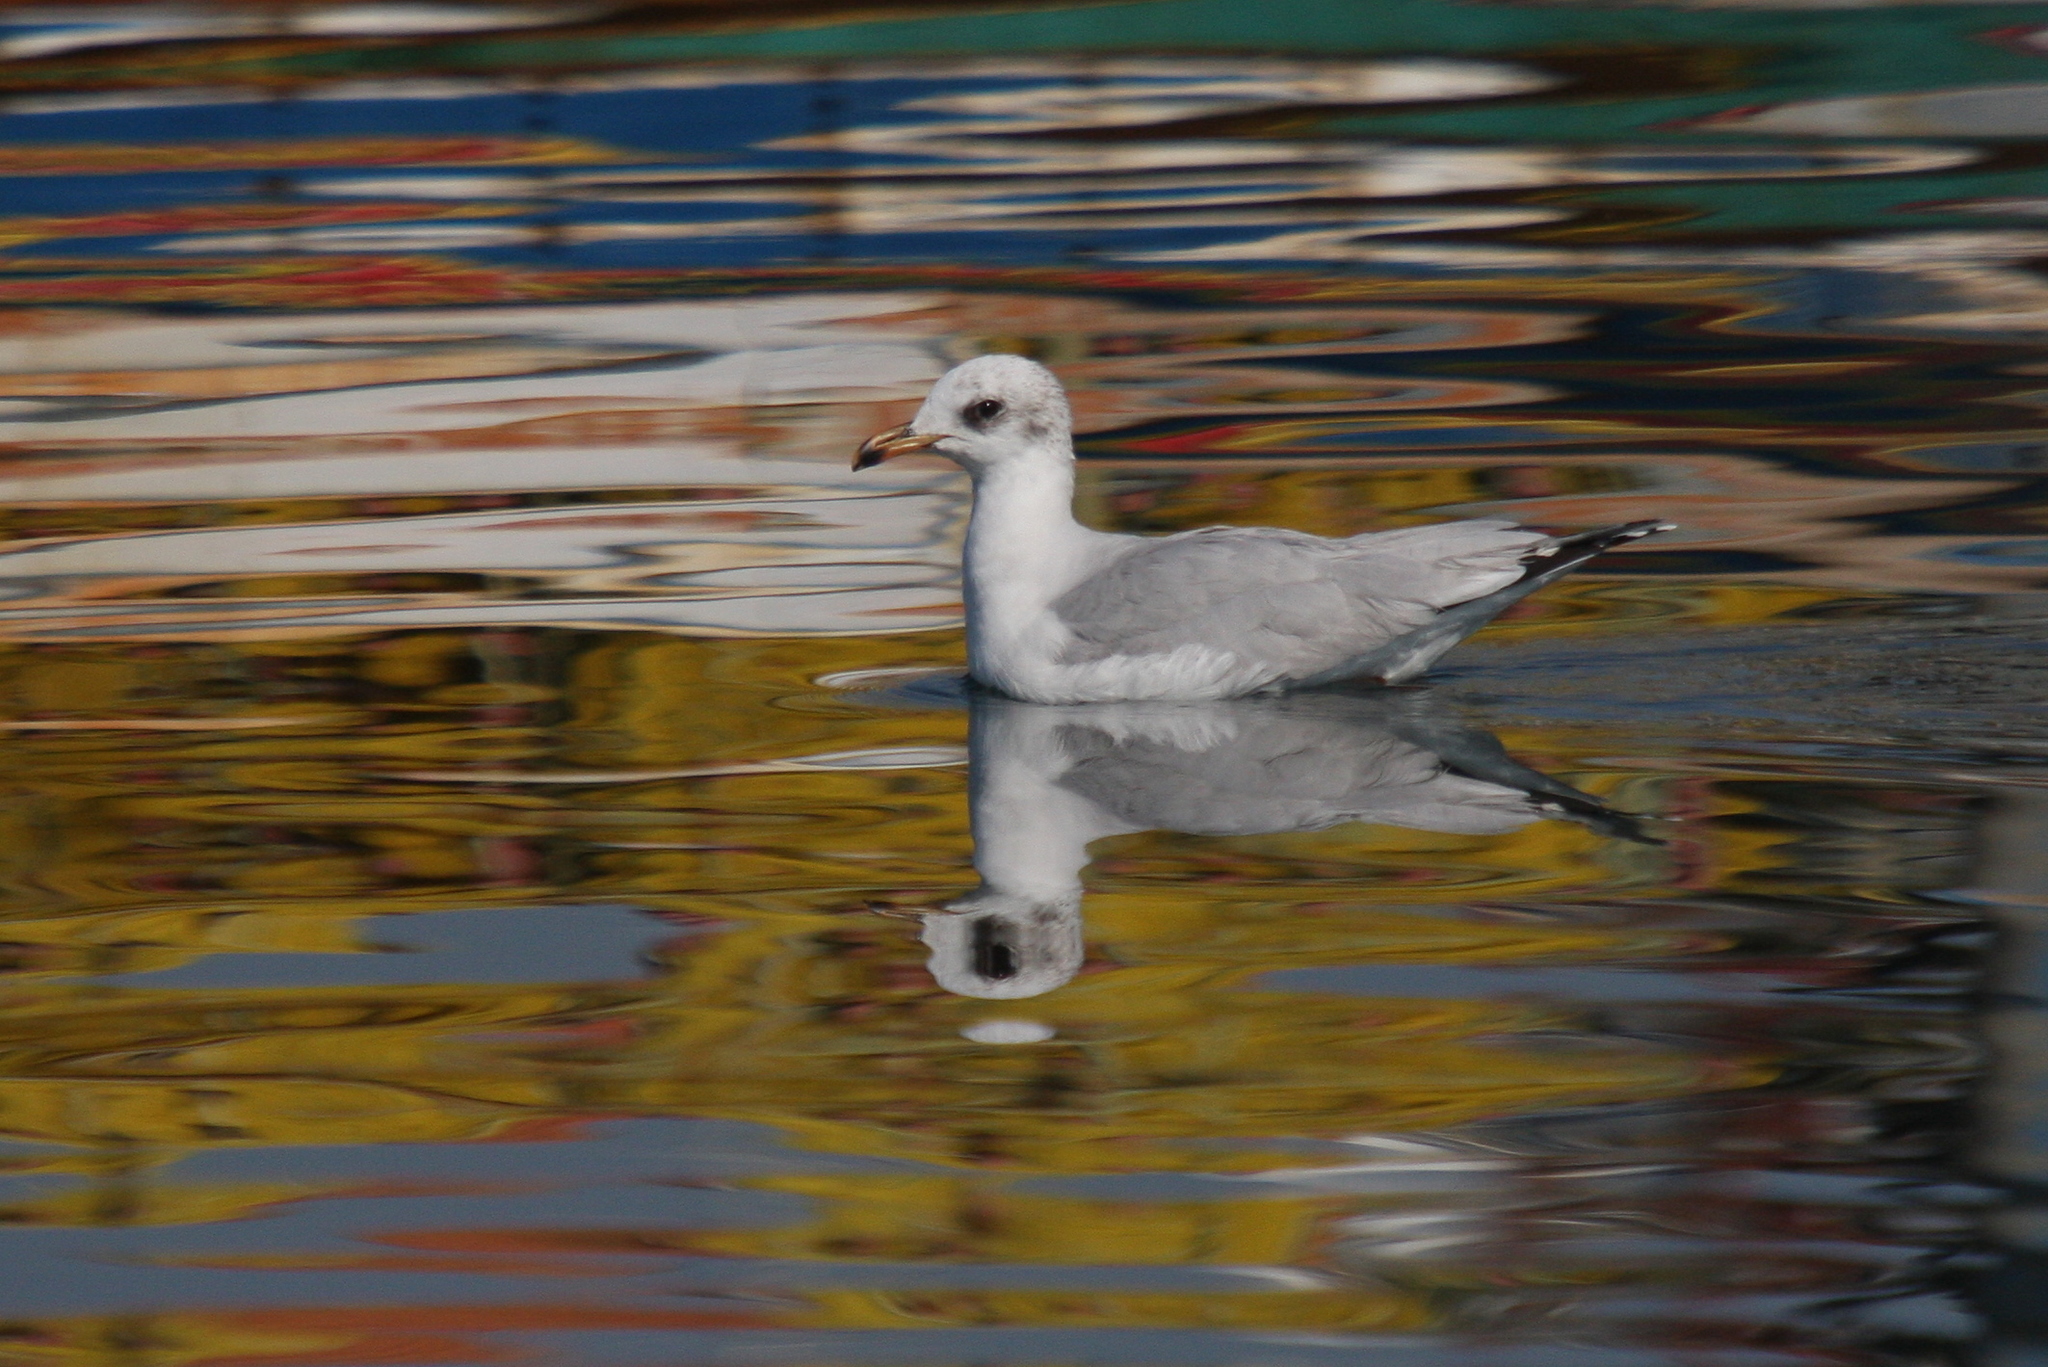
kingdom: Animalia
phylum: Chordata
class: Aves
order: Charadriiformes
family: Laridae
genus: Ichthyaetus
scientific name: Ichthyaetus melanocephalus
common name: Mediterranean gull
